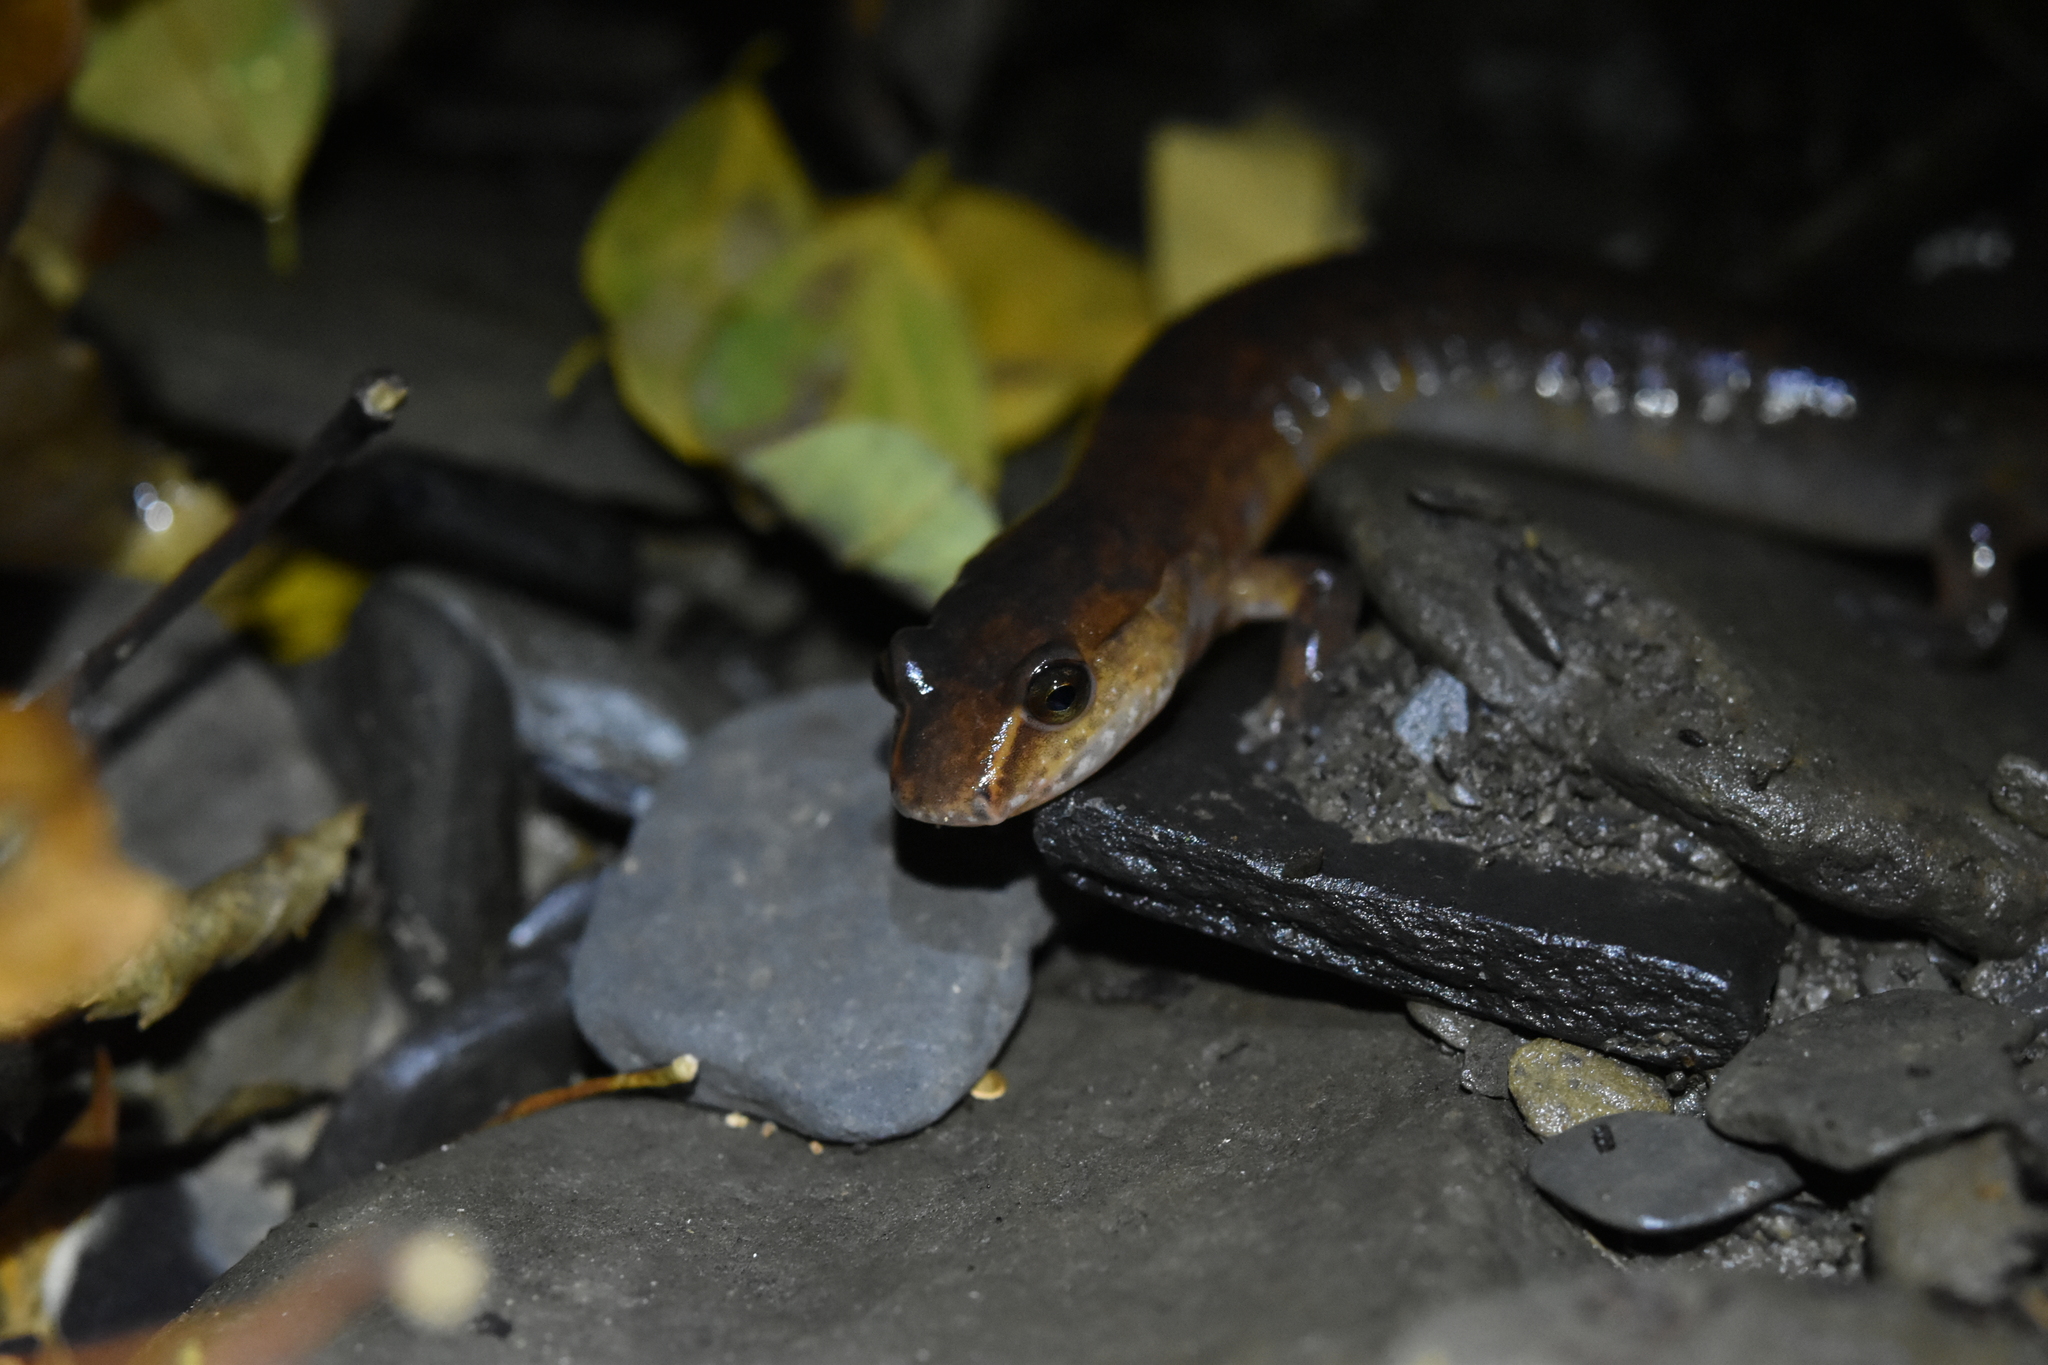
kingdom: Animalia
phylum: Chordata
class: Amphibia
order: Caudata
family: Plethodontidae
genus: Gyrinophilus
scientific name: Gyrinophilus porphyriticus
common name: Spring salamander
